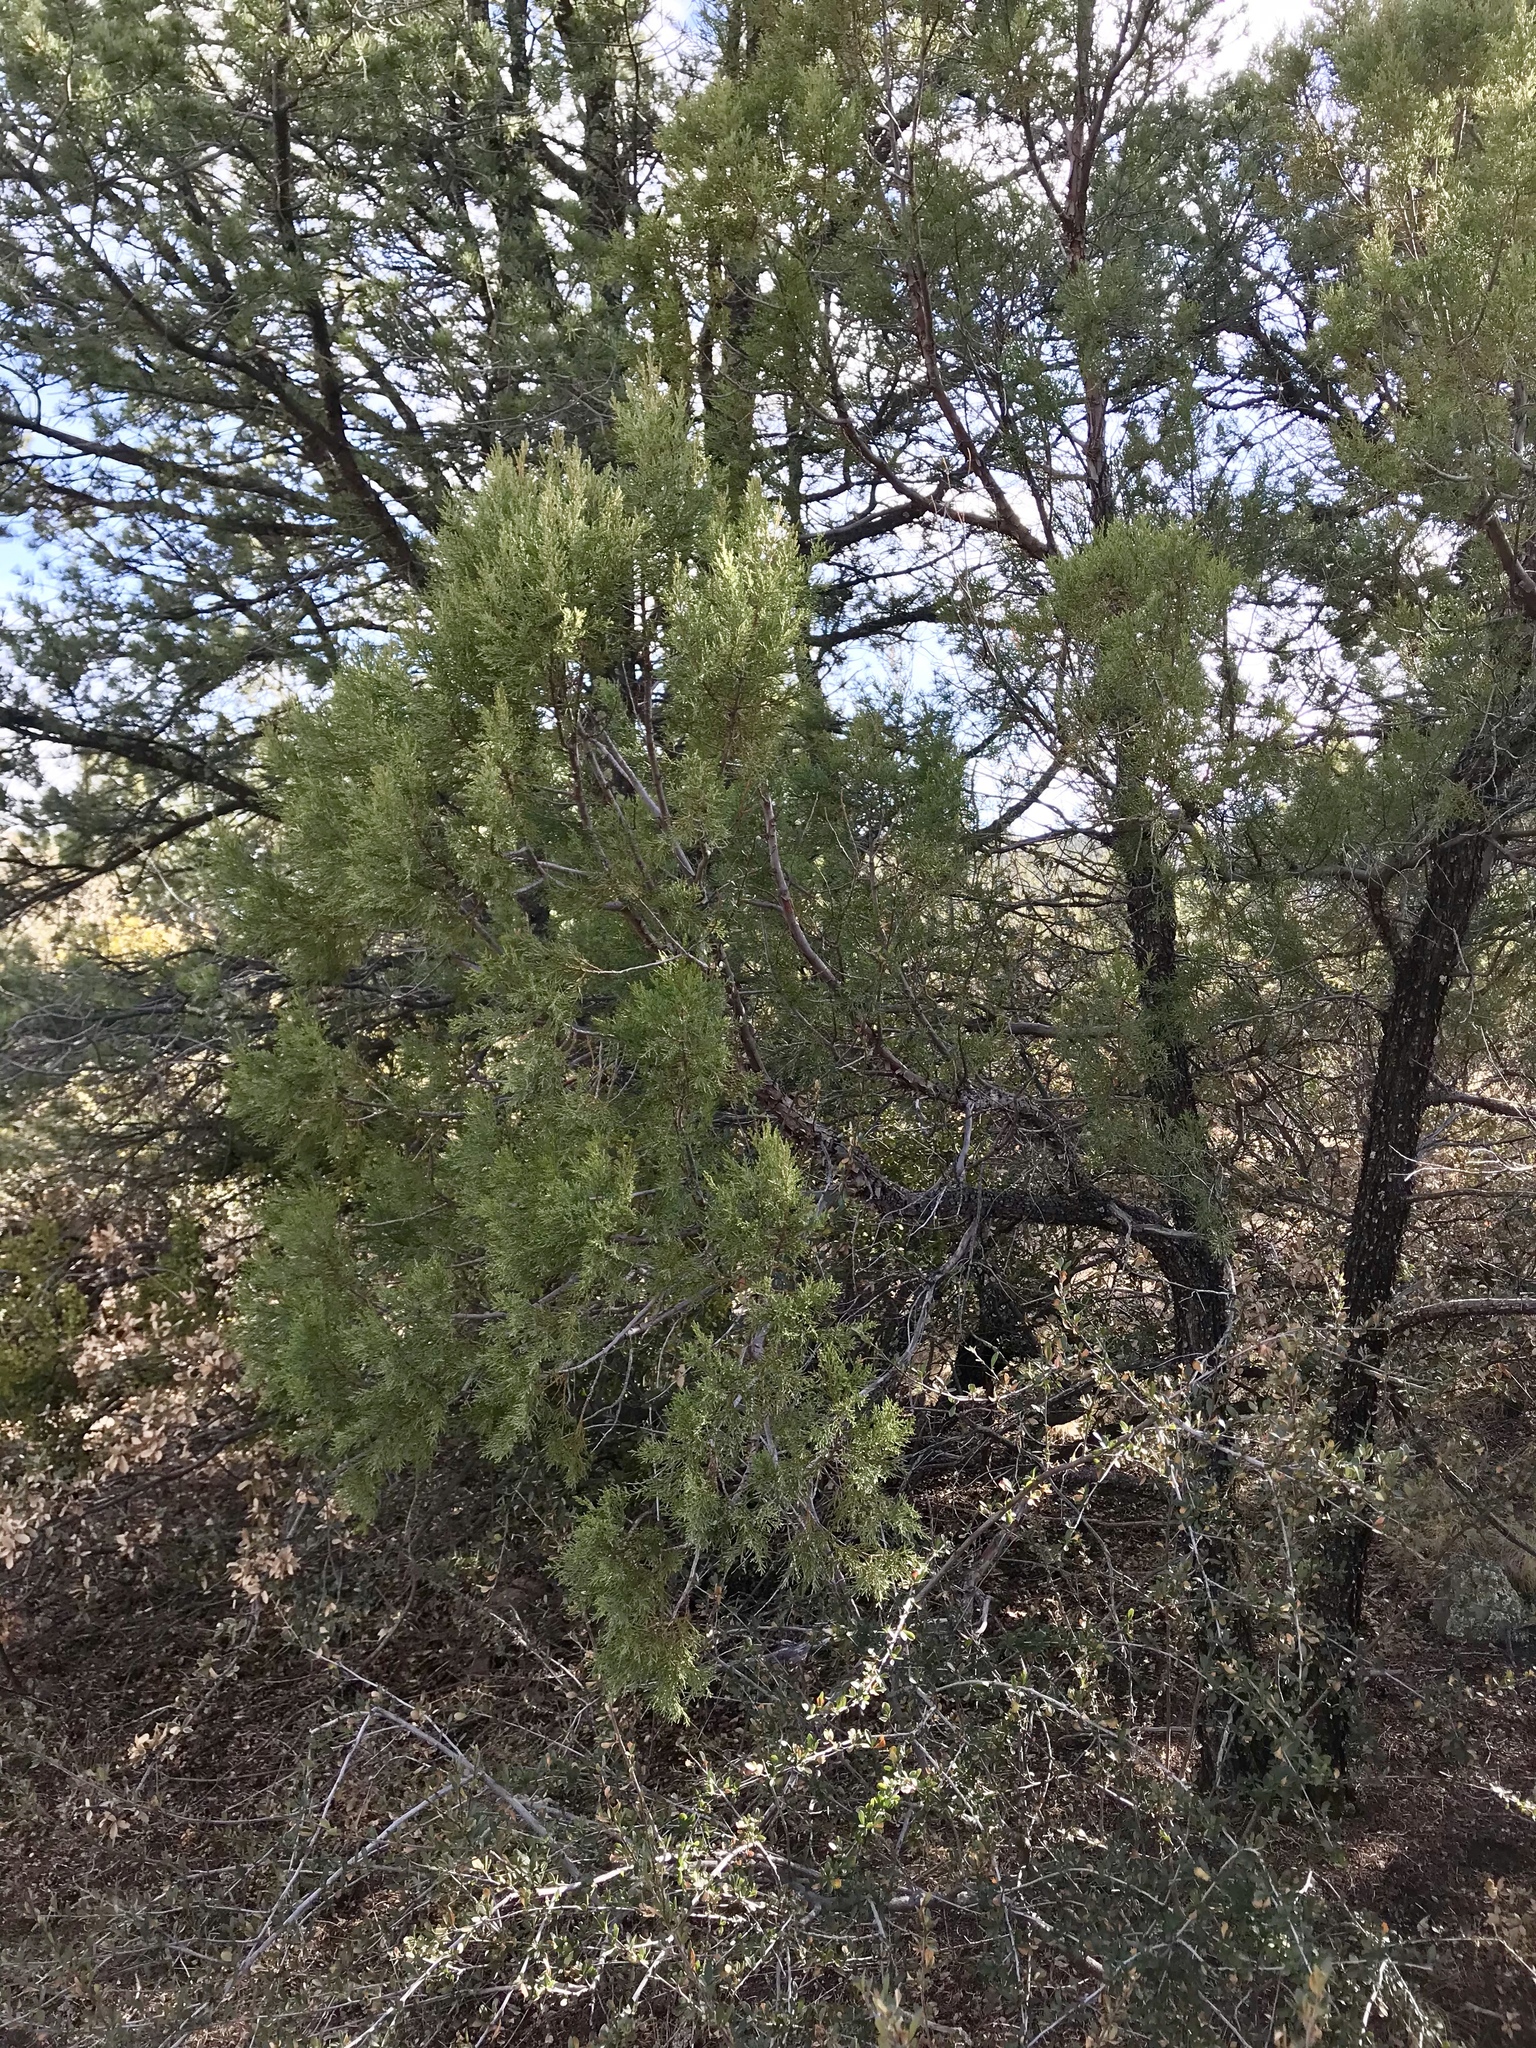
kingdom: Plantae
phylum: Tracheophyta
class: Pinopsida
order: Pinales
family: Cupressaceae
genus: Juniperus
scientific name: Juniperus deppeana
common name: Alligator juniper
